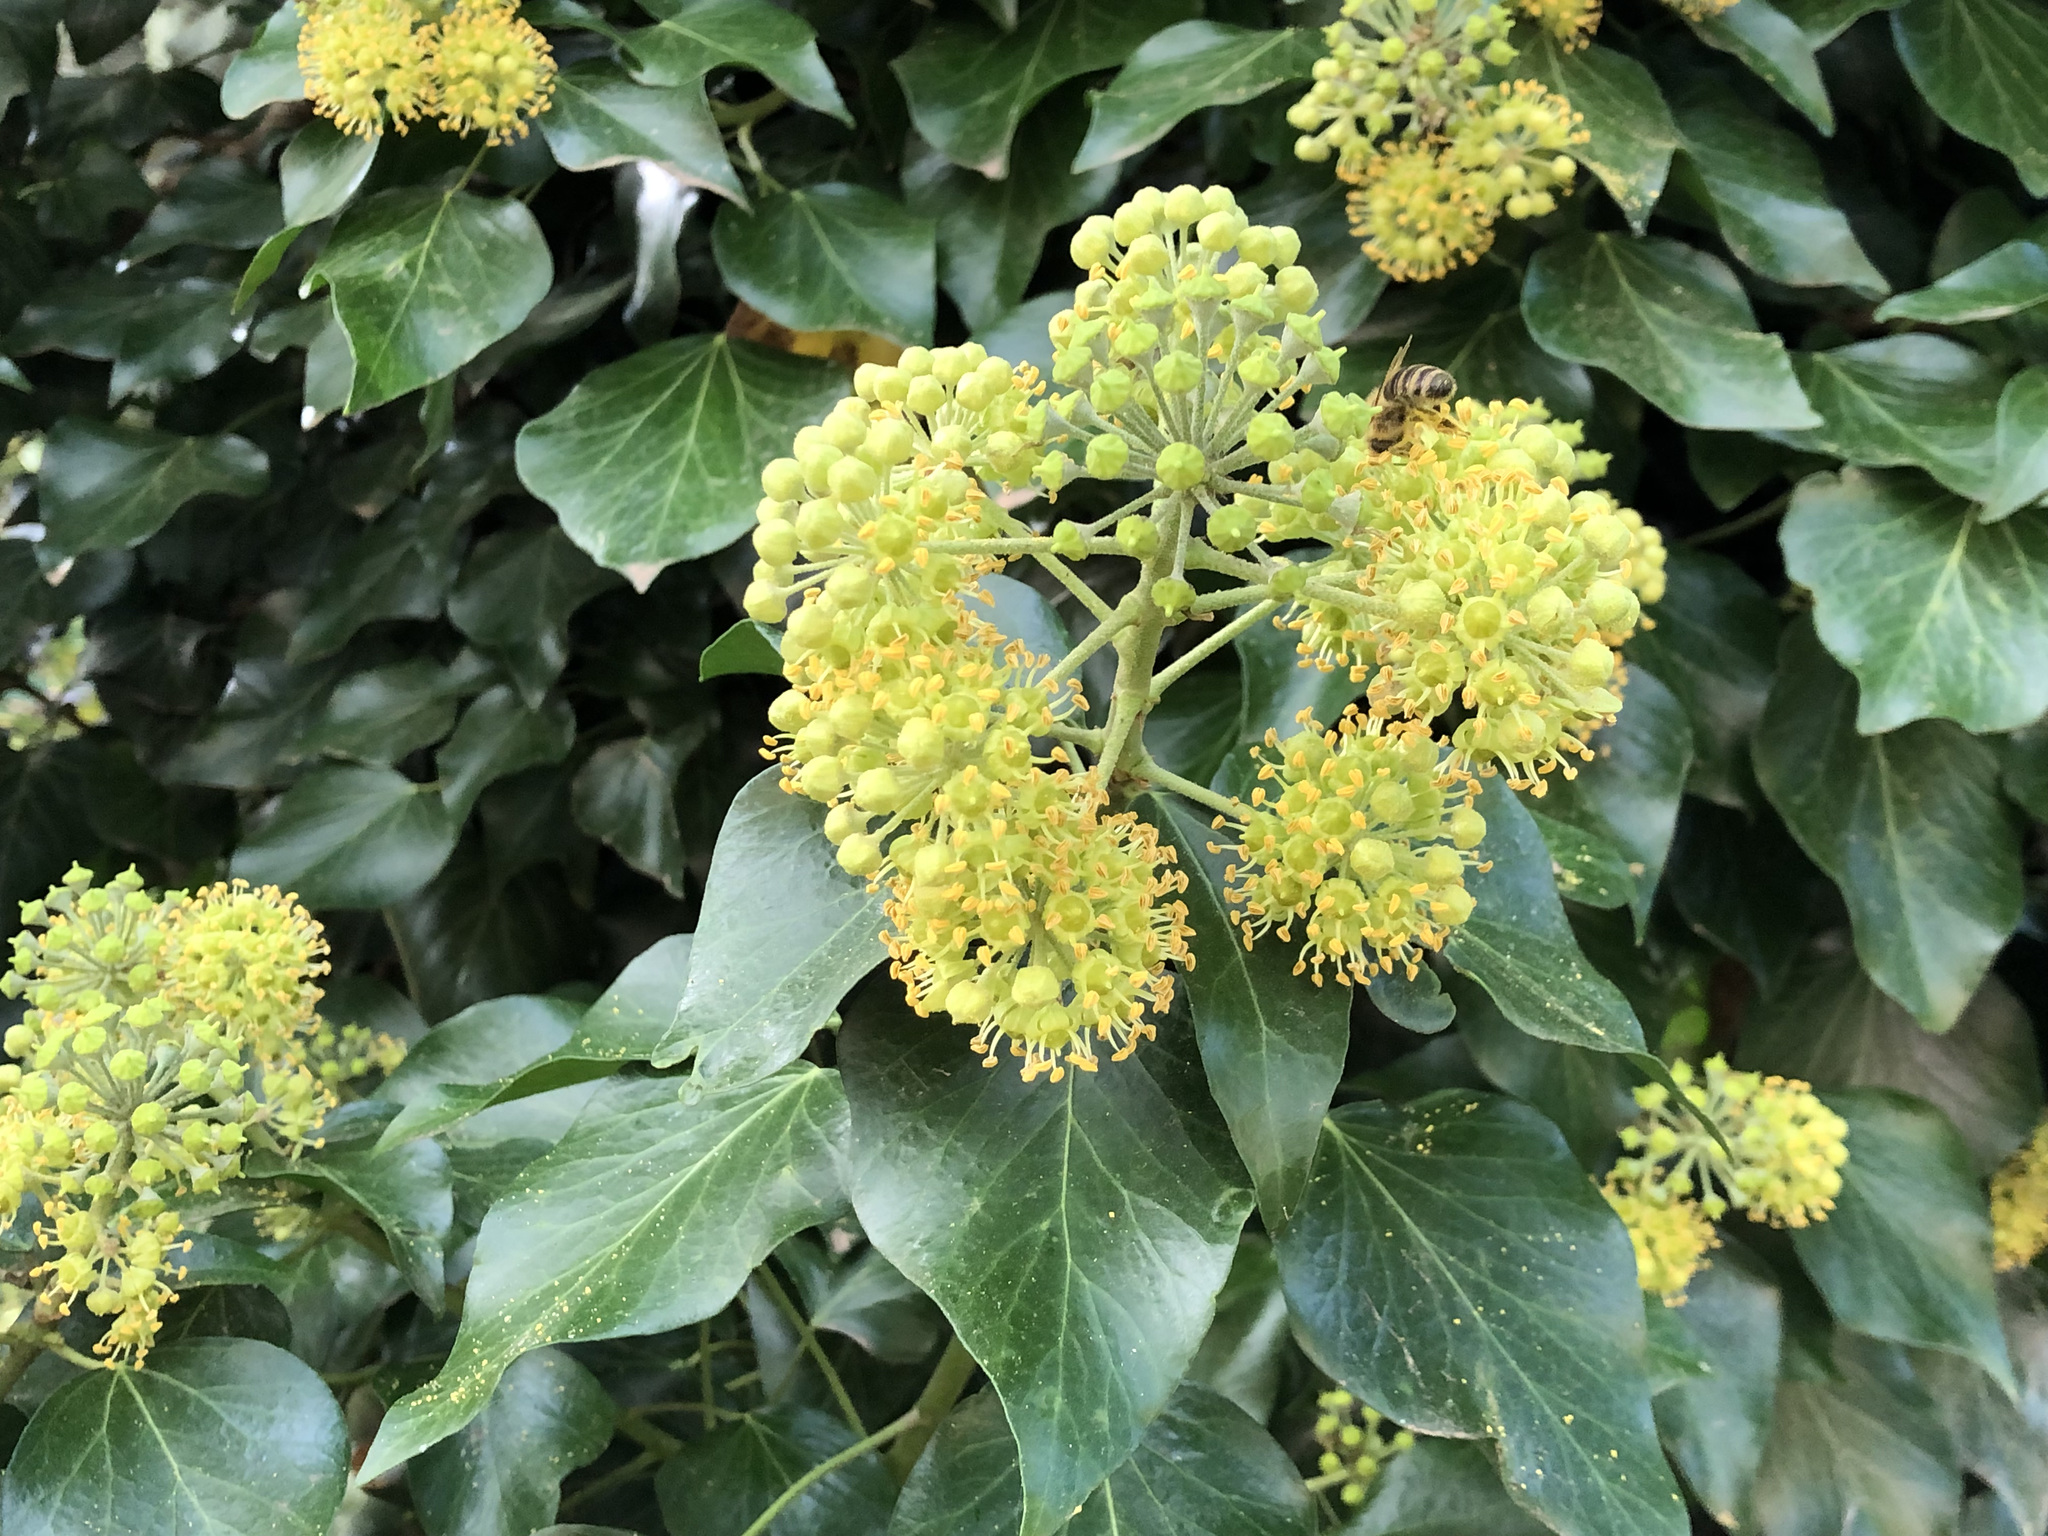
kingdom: Plantae
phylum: Tracheophyta
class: Magnoliopsida
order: Apiales
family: Araliaceae
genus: Hedera
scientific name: Hedera helix
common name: Ivy
